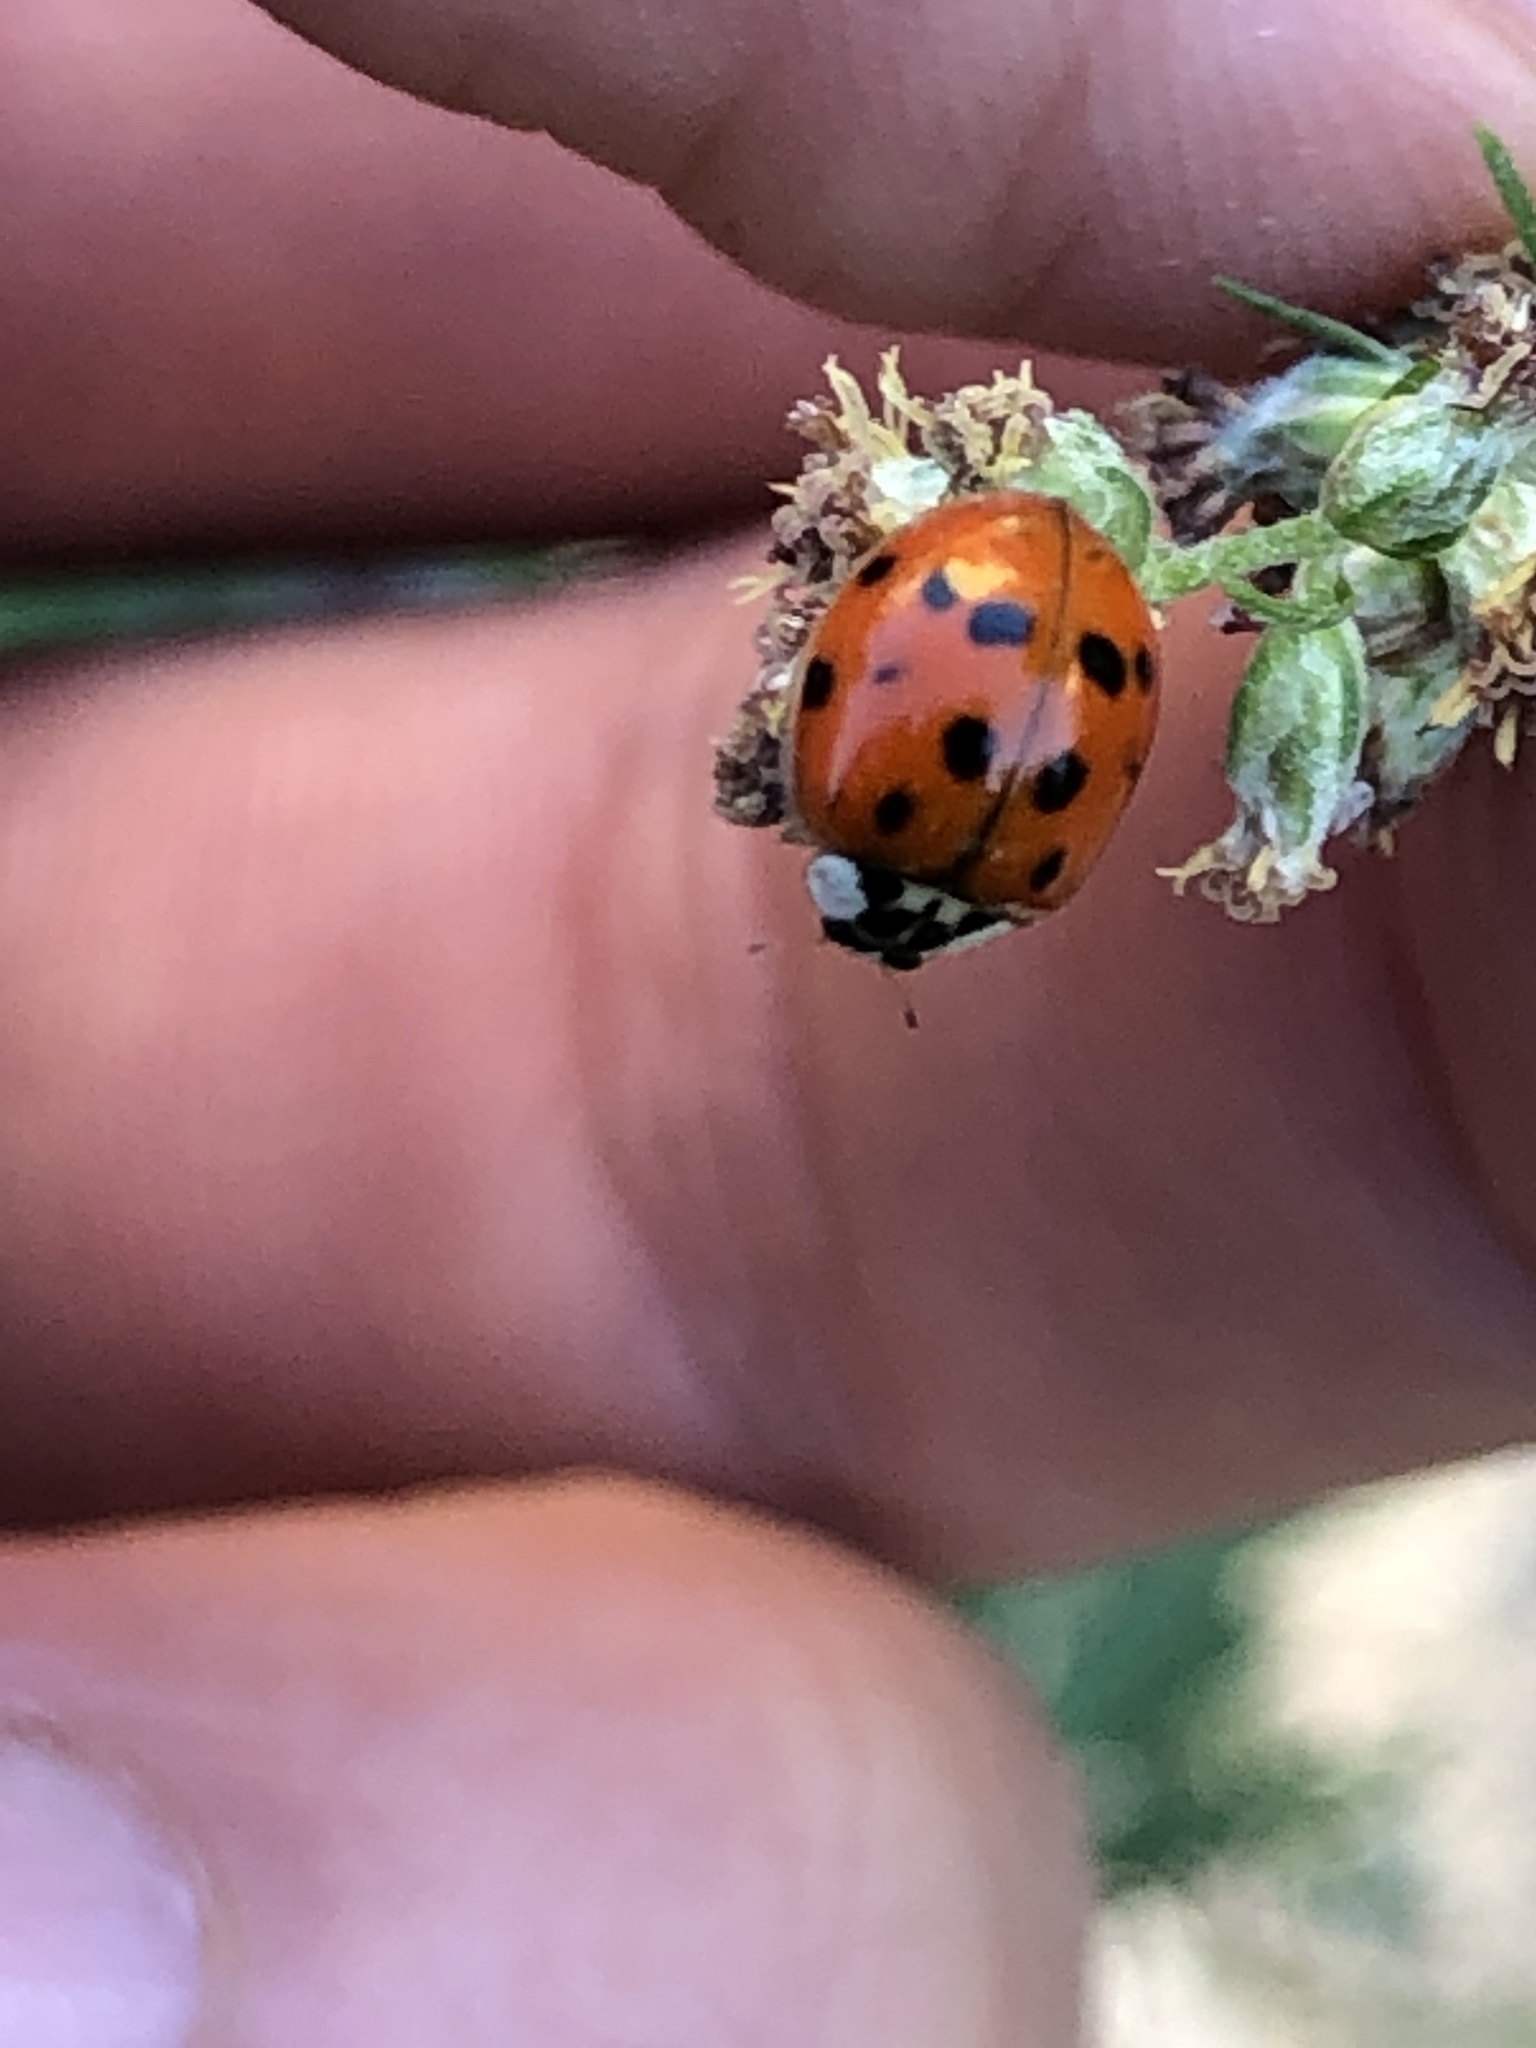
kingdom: Animalia
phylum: Arthropoda
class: Insecta
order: Coleoptera
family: Coccinellidae
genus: Harmonia
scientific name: Harmonia axyridis
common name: Harlequin ladybird
